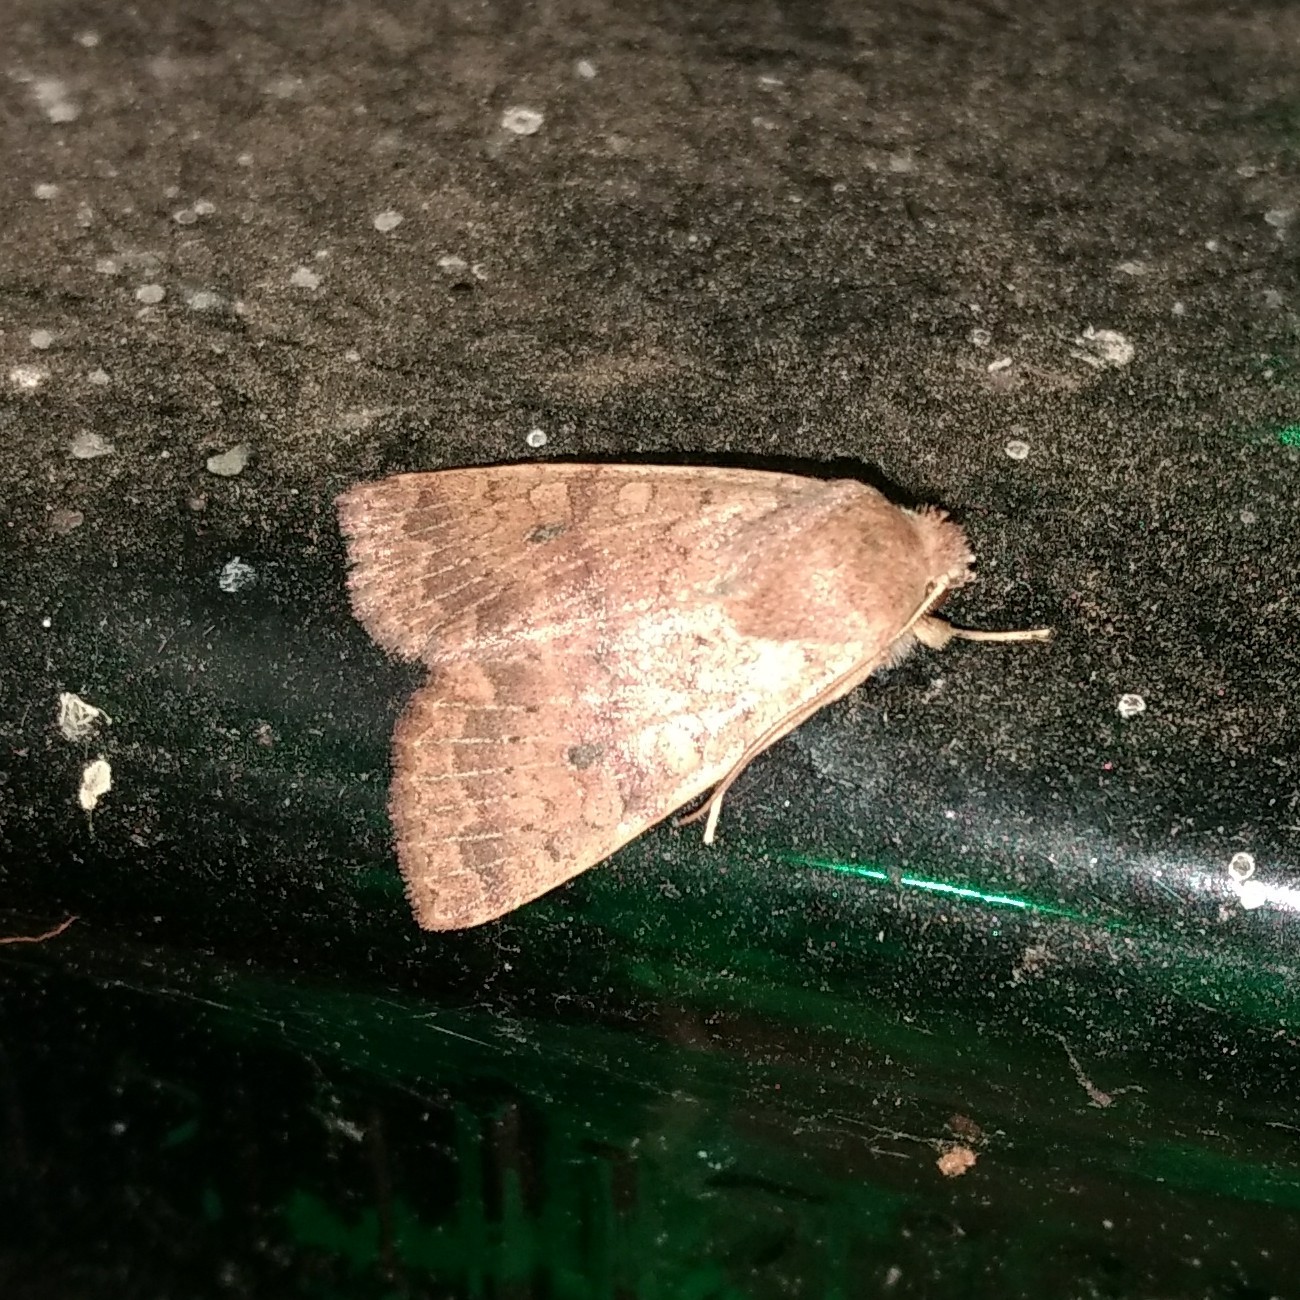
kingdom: Animalia
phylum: Arthropoda
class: Insecta
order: Lepidoptera
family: Noctuidae
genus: Agrochola
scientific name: Agrochola bicolorago
